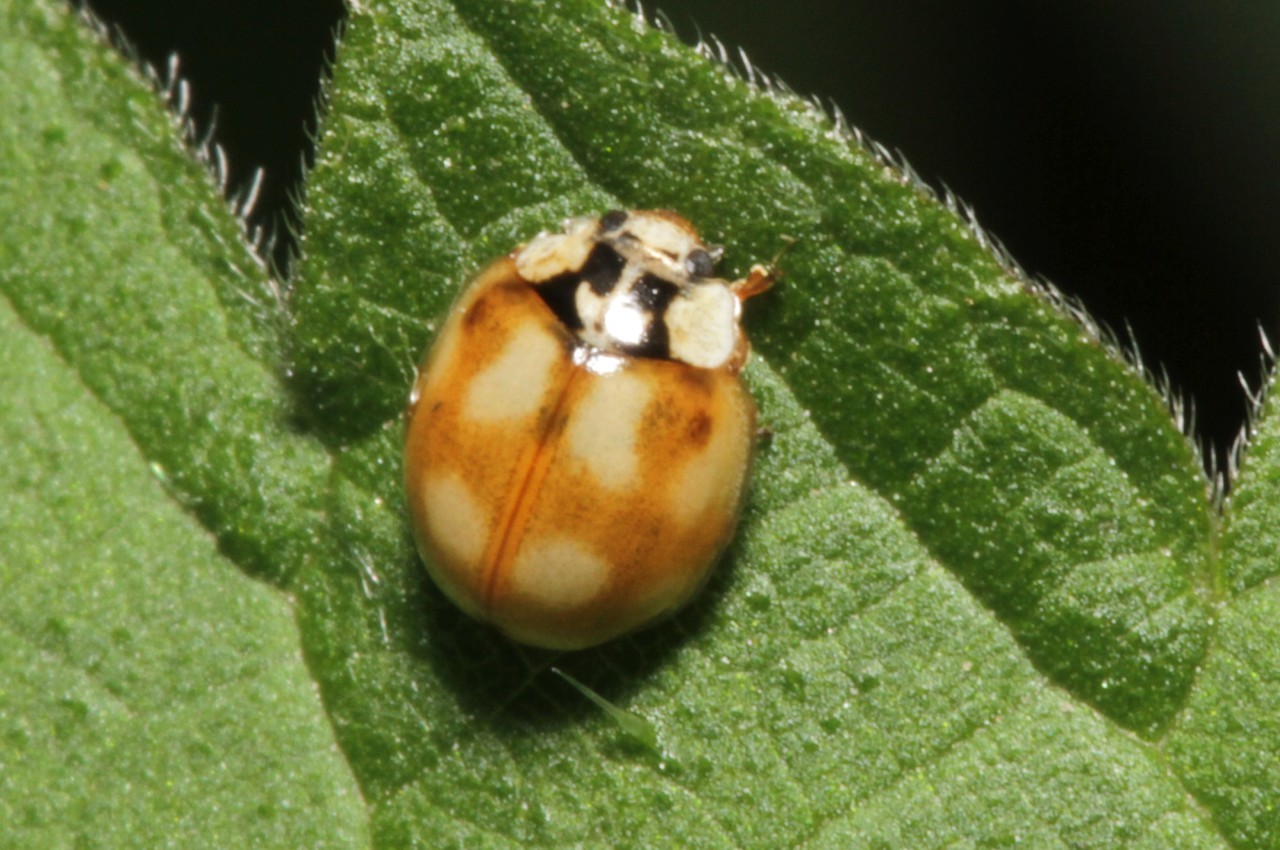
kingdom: Animalia
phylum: Arthropoda
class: Insecta
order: Coleoptera
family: Coccinellidae
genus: Adalia
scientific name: Adalia decempunctata
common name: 10-spot ladybird
